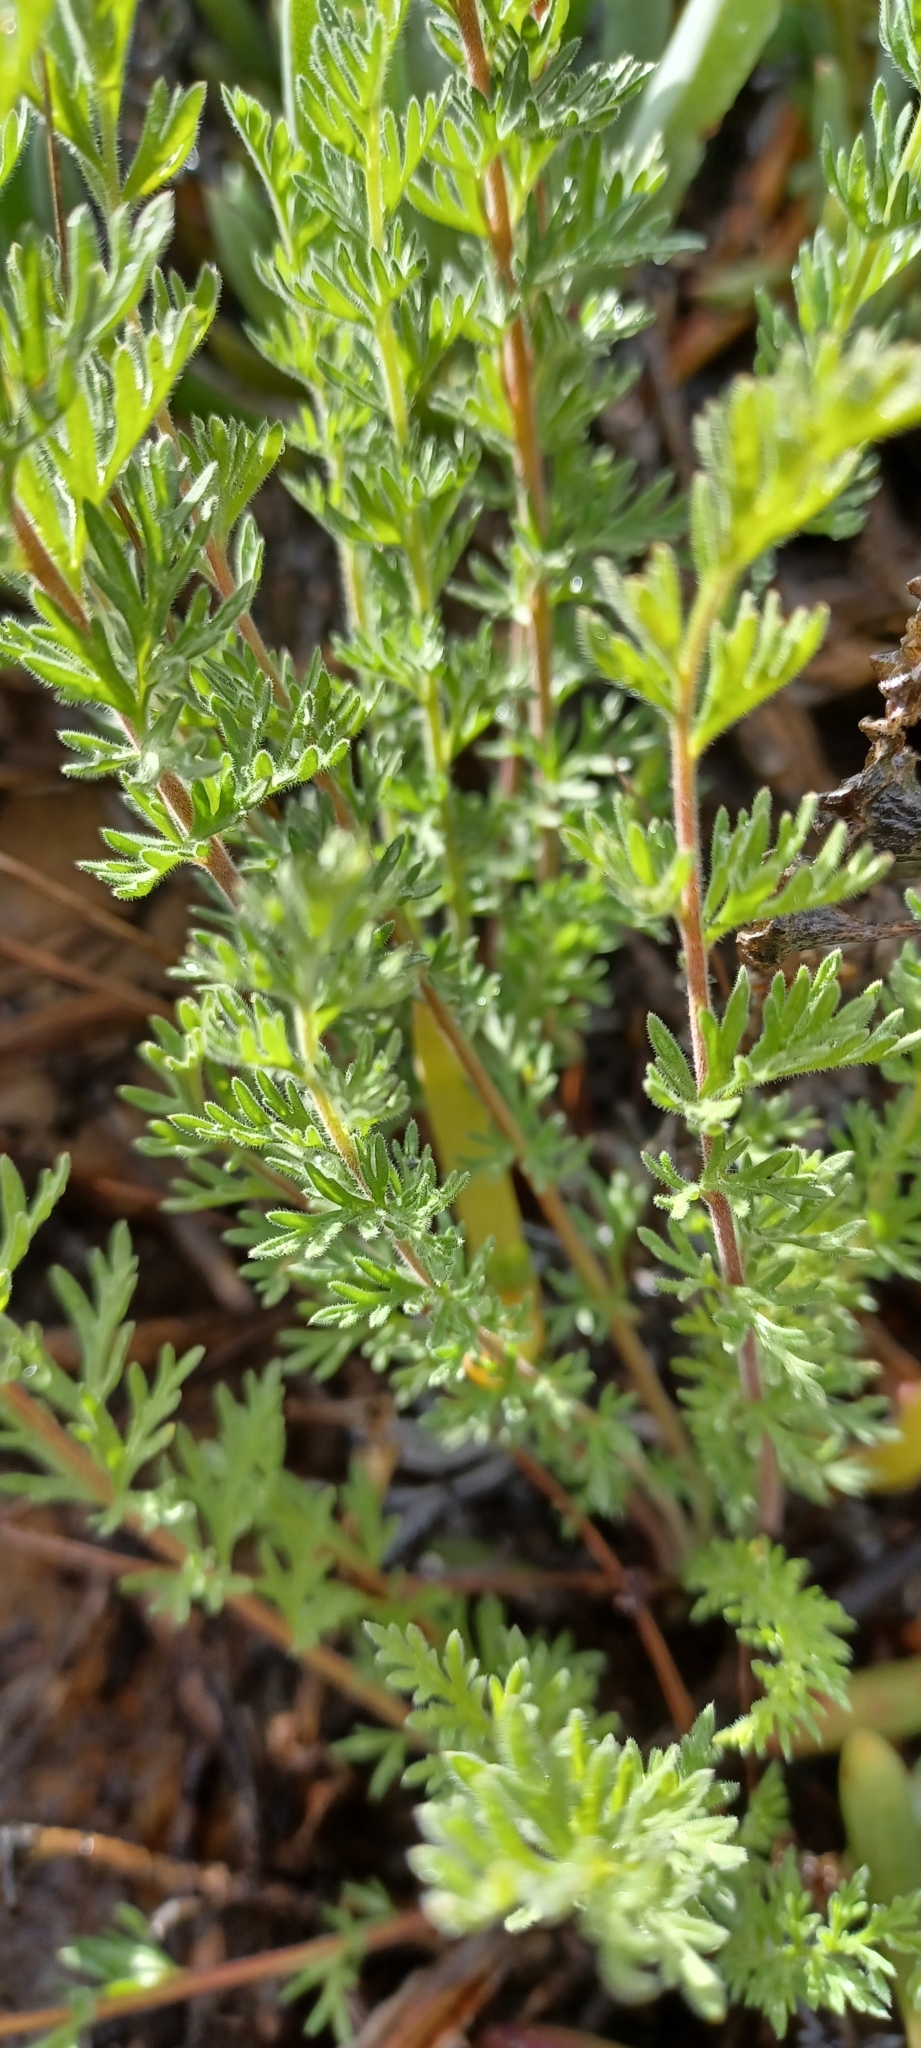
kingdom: Plantae
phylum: Tracheophyta
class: Magnoliopsida
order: Geraniales
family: Geraniaceae
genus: Pelargonium
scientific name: Pelargonium rapaceum
